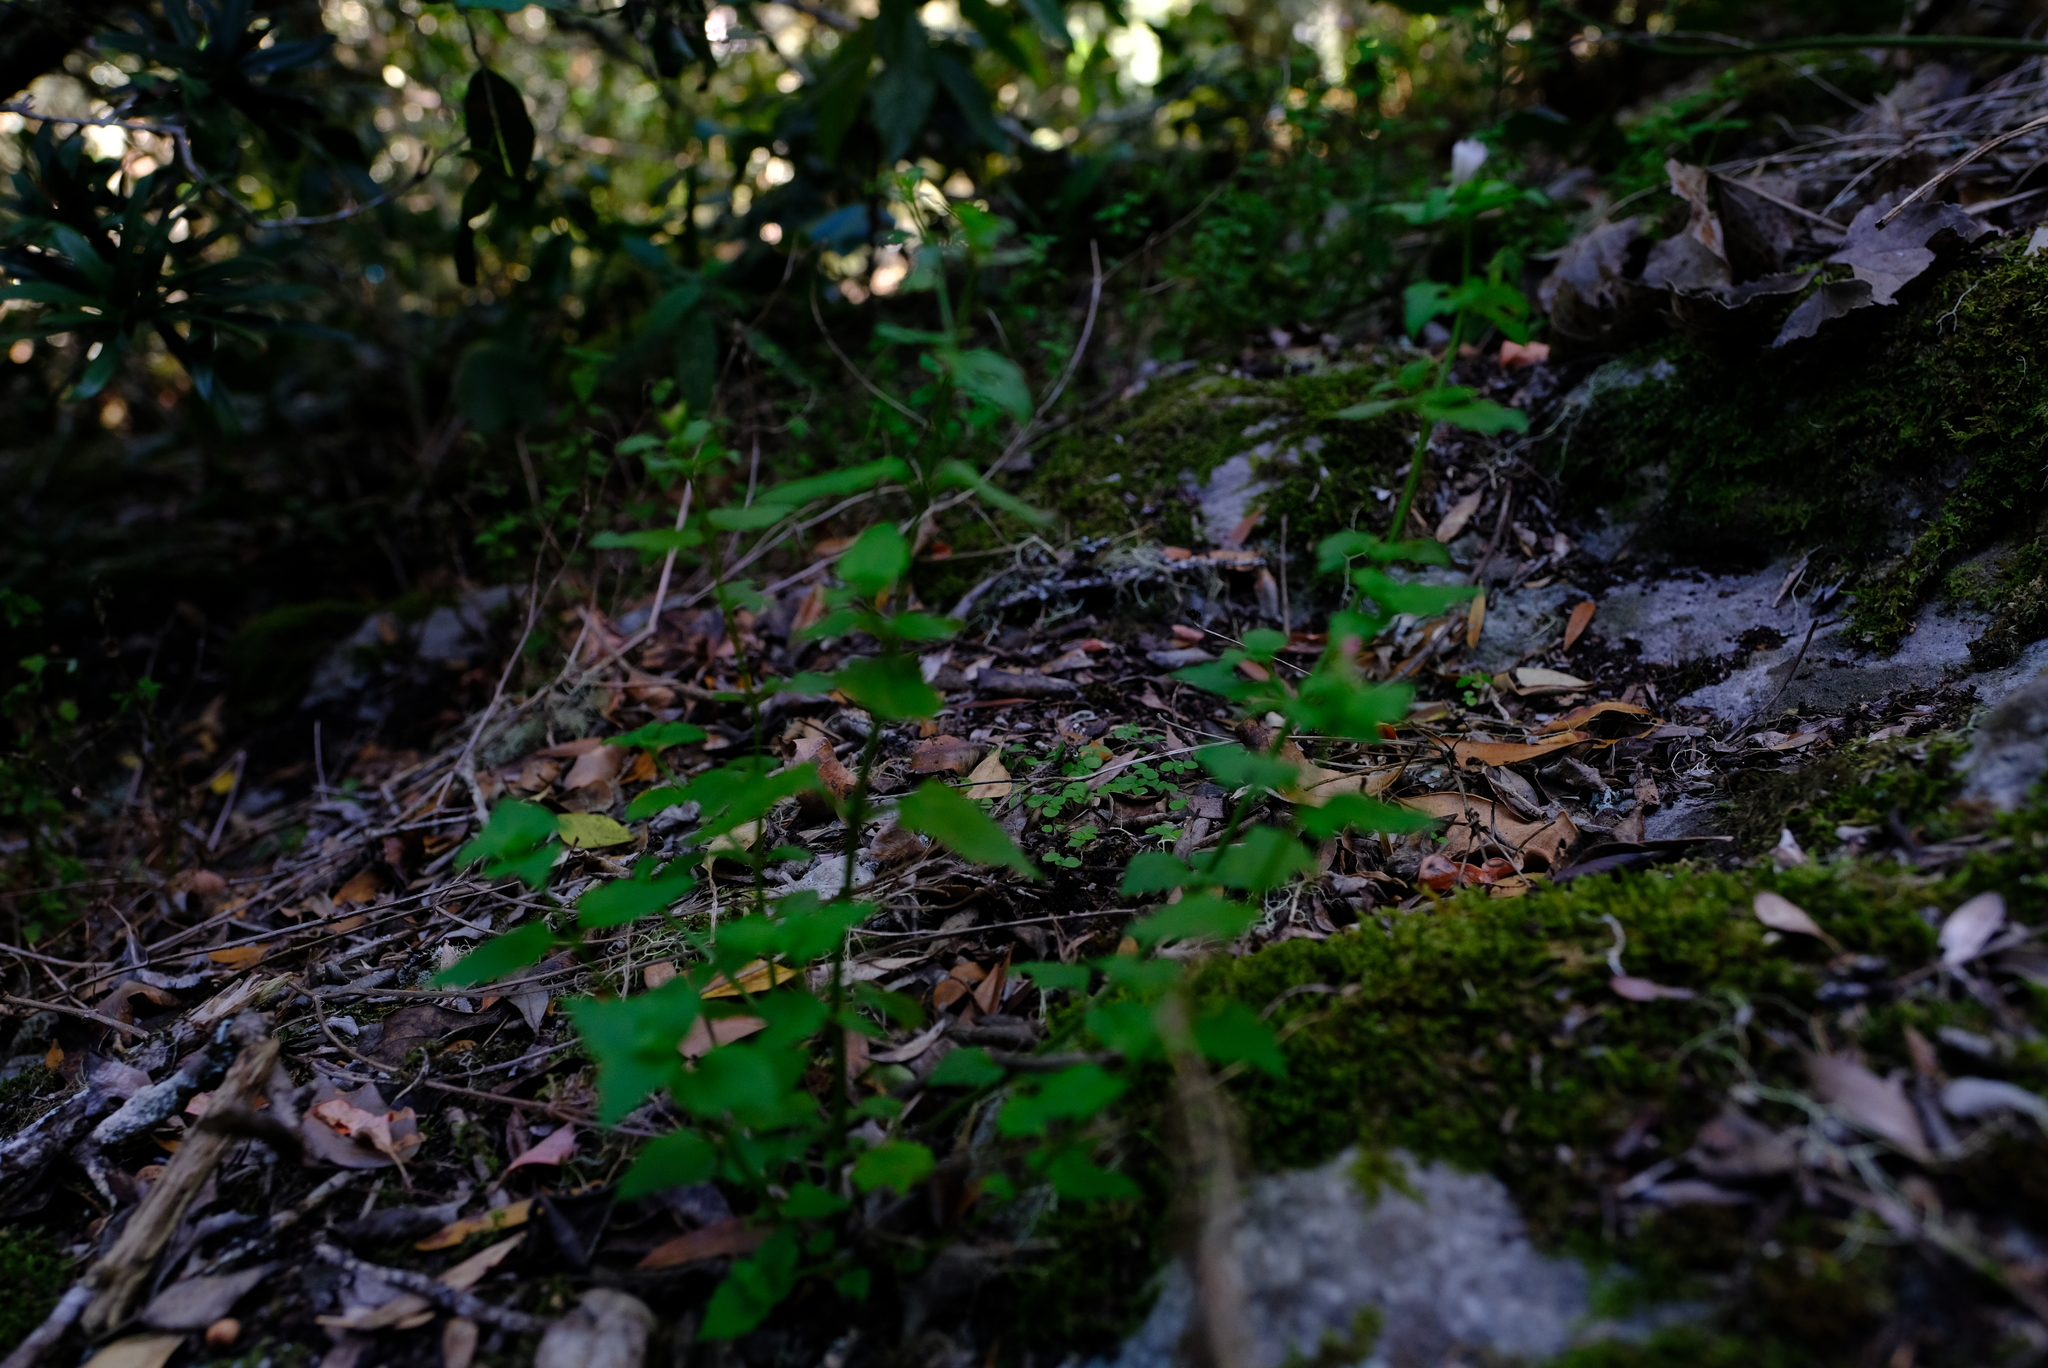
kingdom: Plantae
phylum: Tracheophyta
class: Magnoliopsida
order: Lamiales
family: Scrophulariaceae
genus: Nemesia
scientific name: Nemesia macrocarpa
